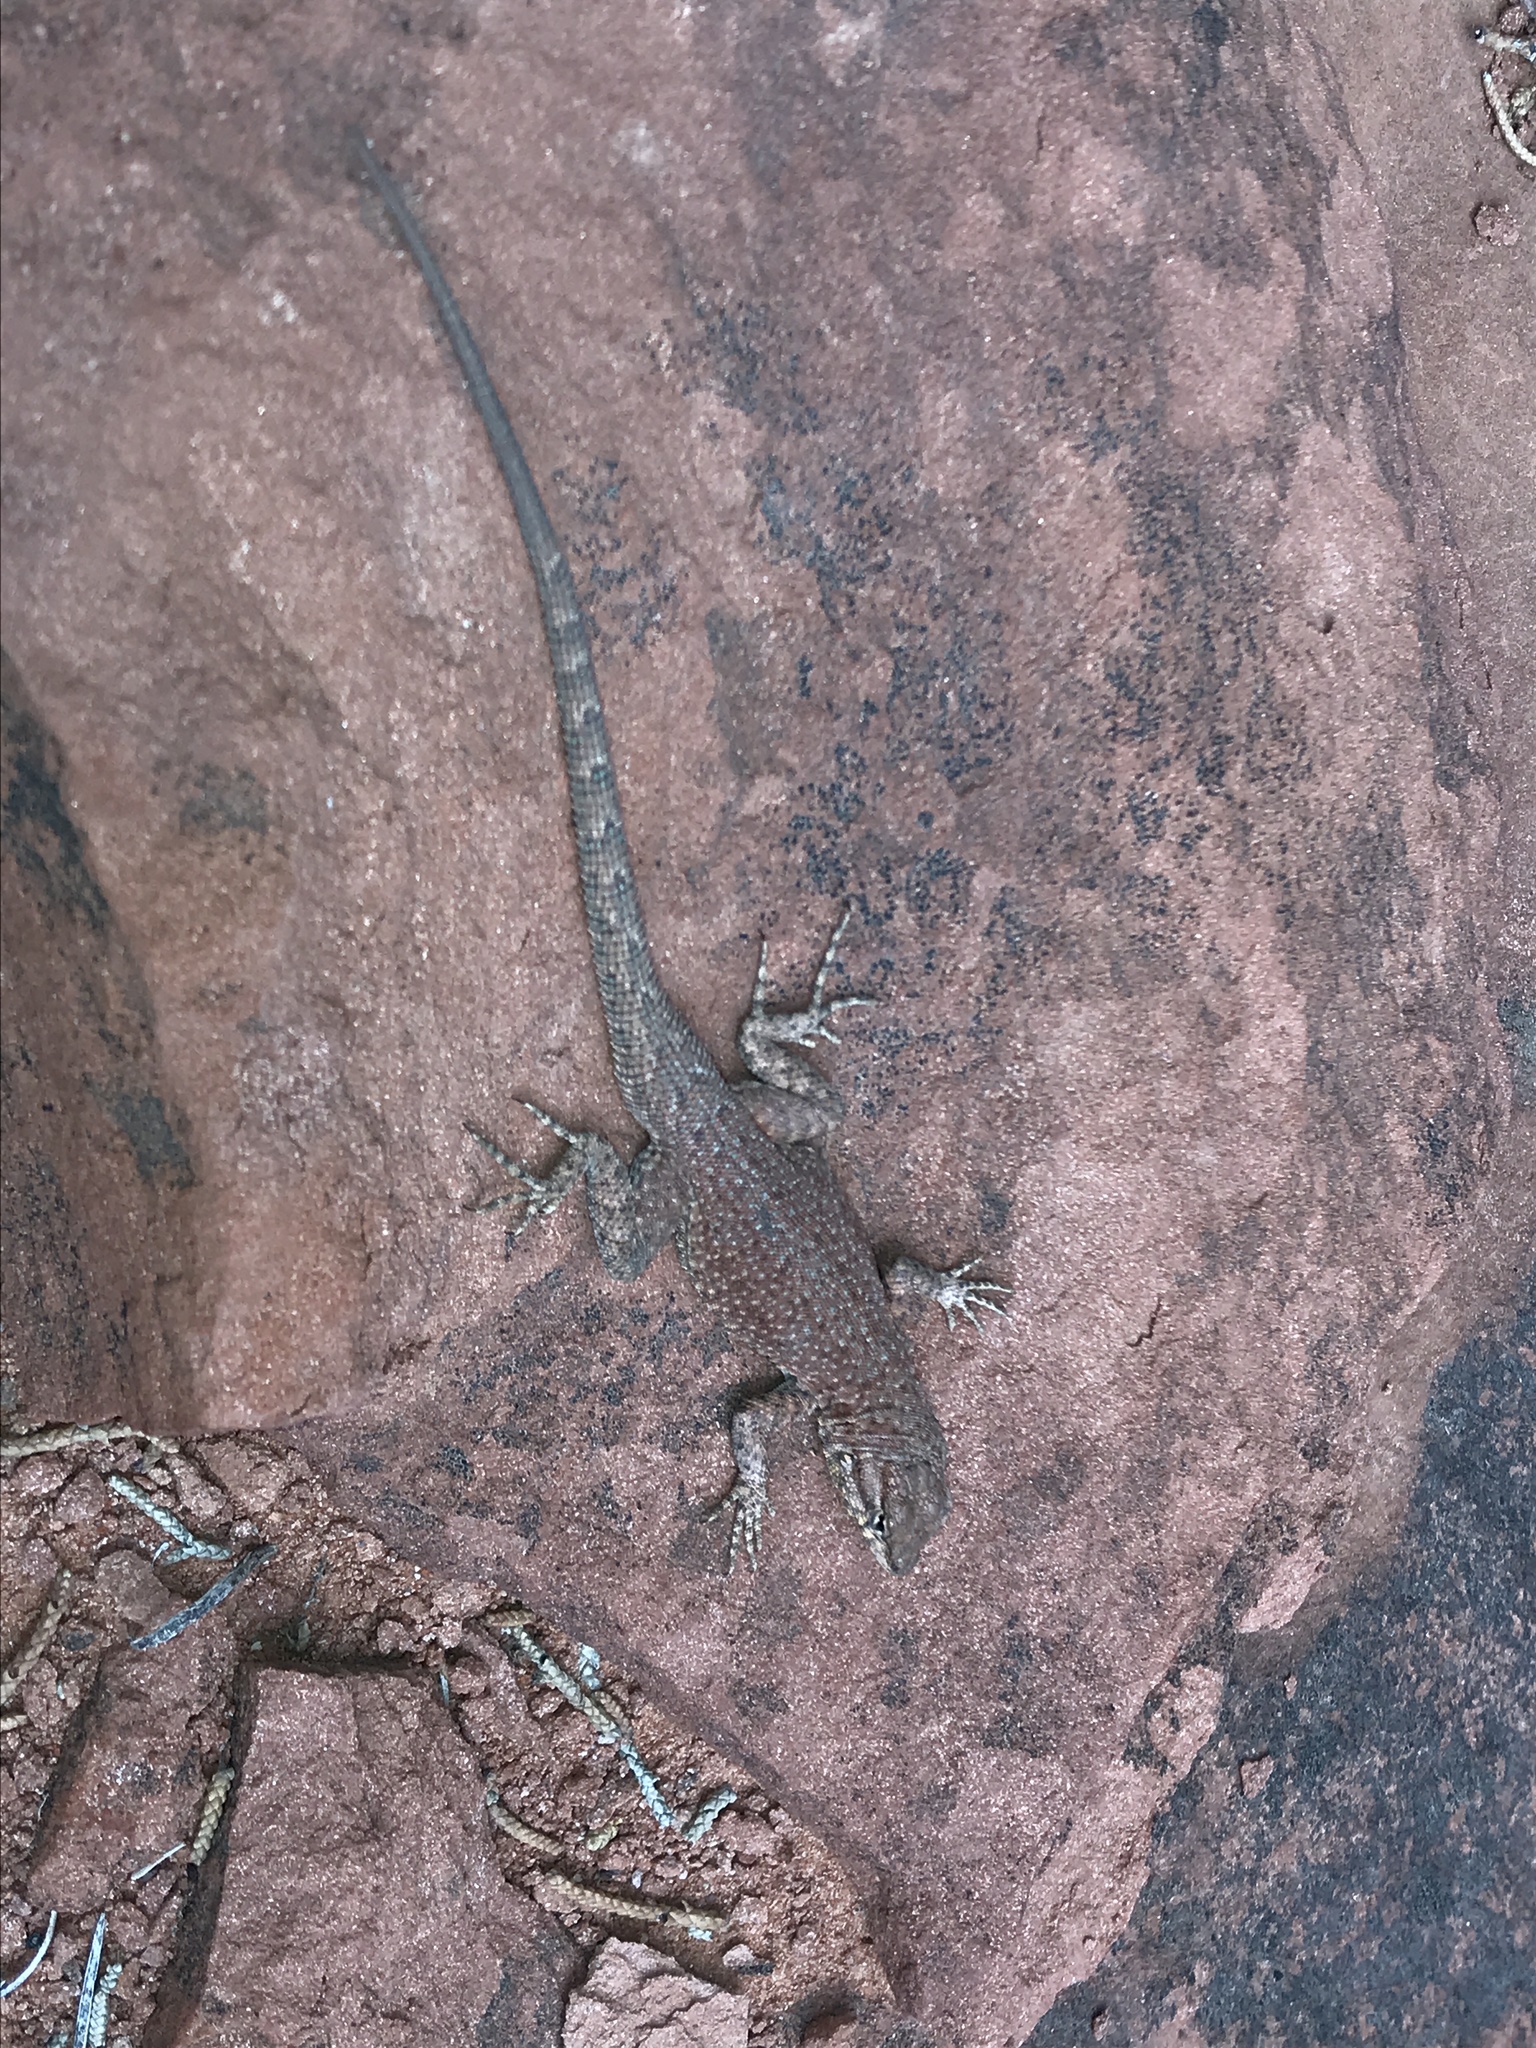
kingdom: Animalia
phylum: Chordata
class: Squamata
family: Phrynosomatidae
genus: Uta
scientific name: Uta stansburiana
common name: Side-blotched lizard
